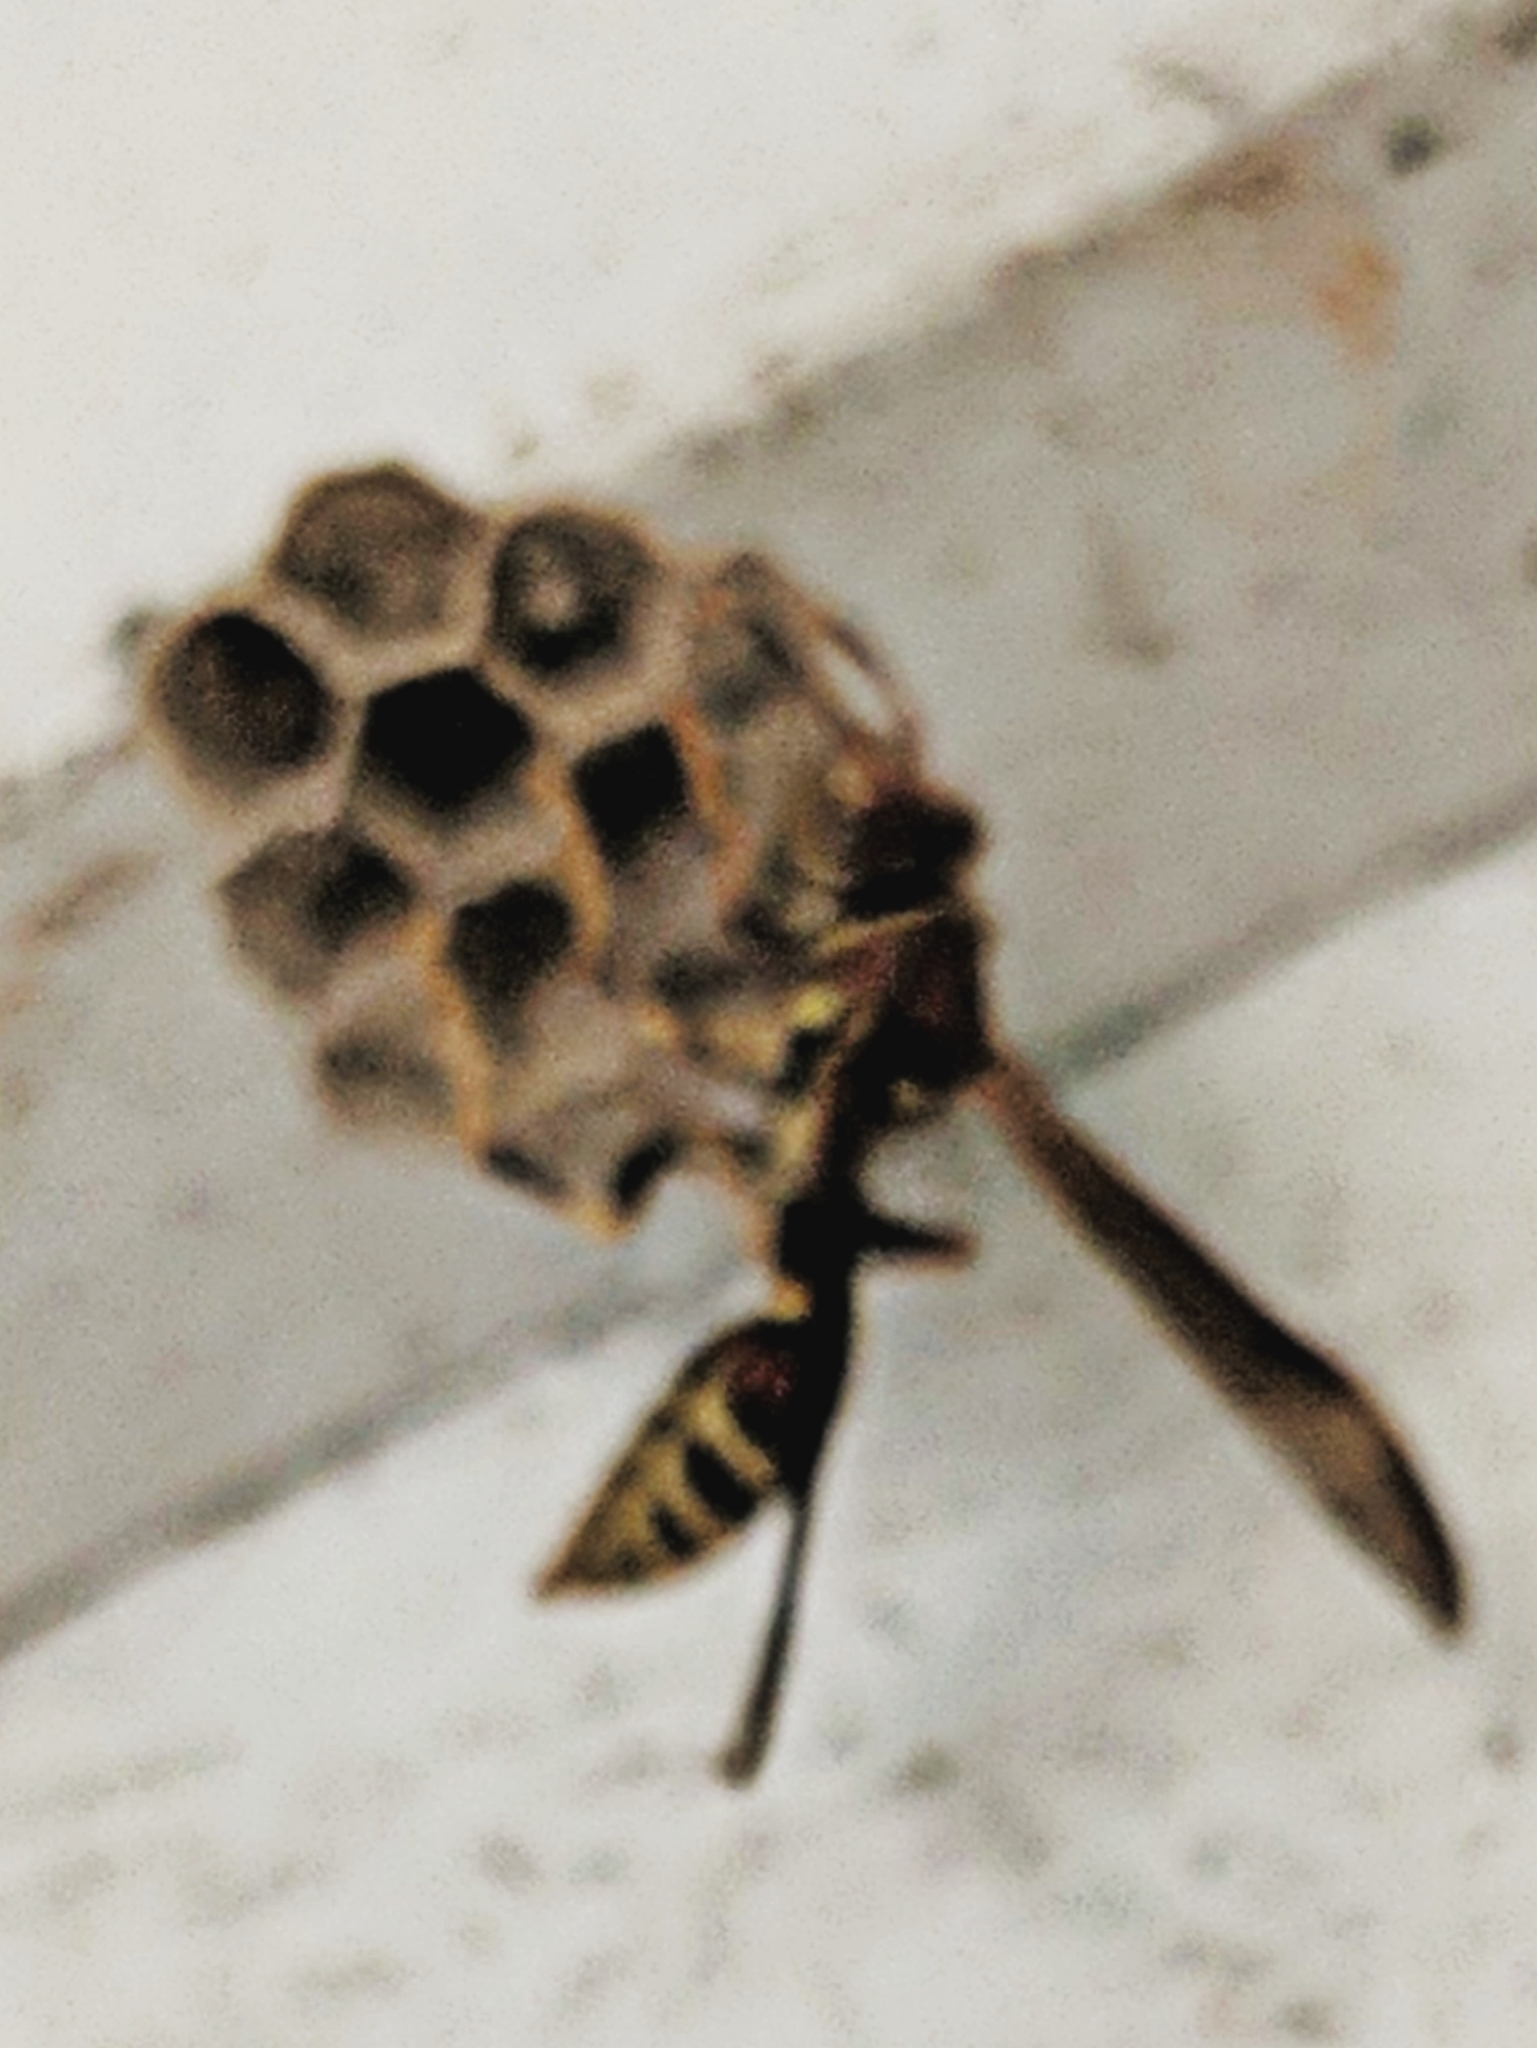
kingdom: Animalia
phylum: Arthropoda
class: Insecta
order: Hymenoptera
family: Eumenidae
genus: Polistes
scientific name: Polistes exclamans
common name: Paper wasp
